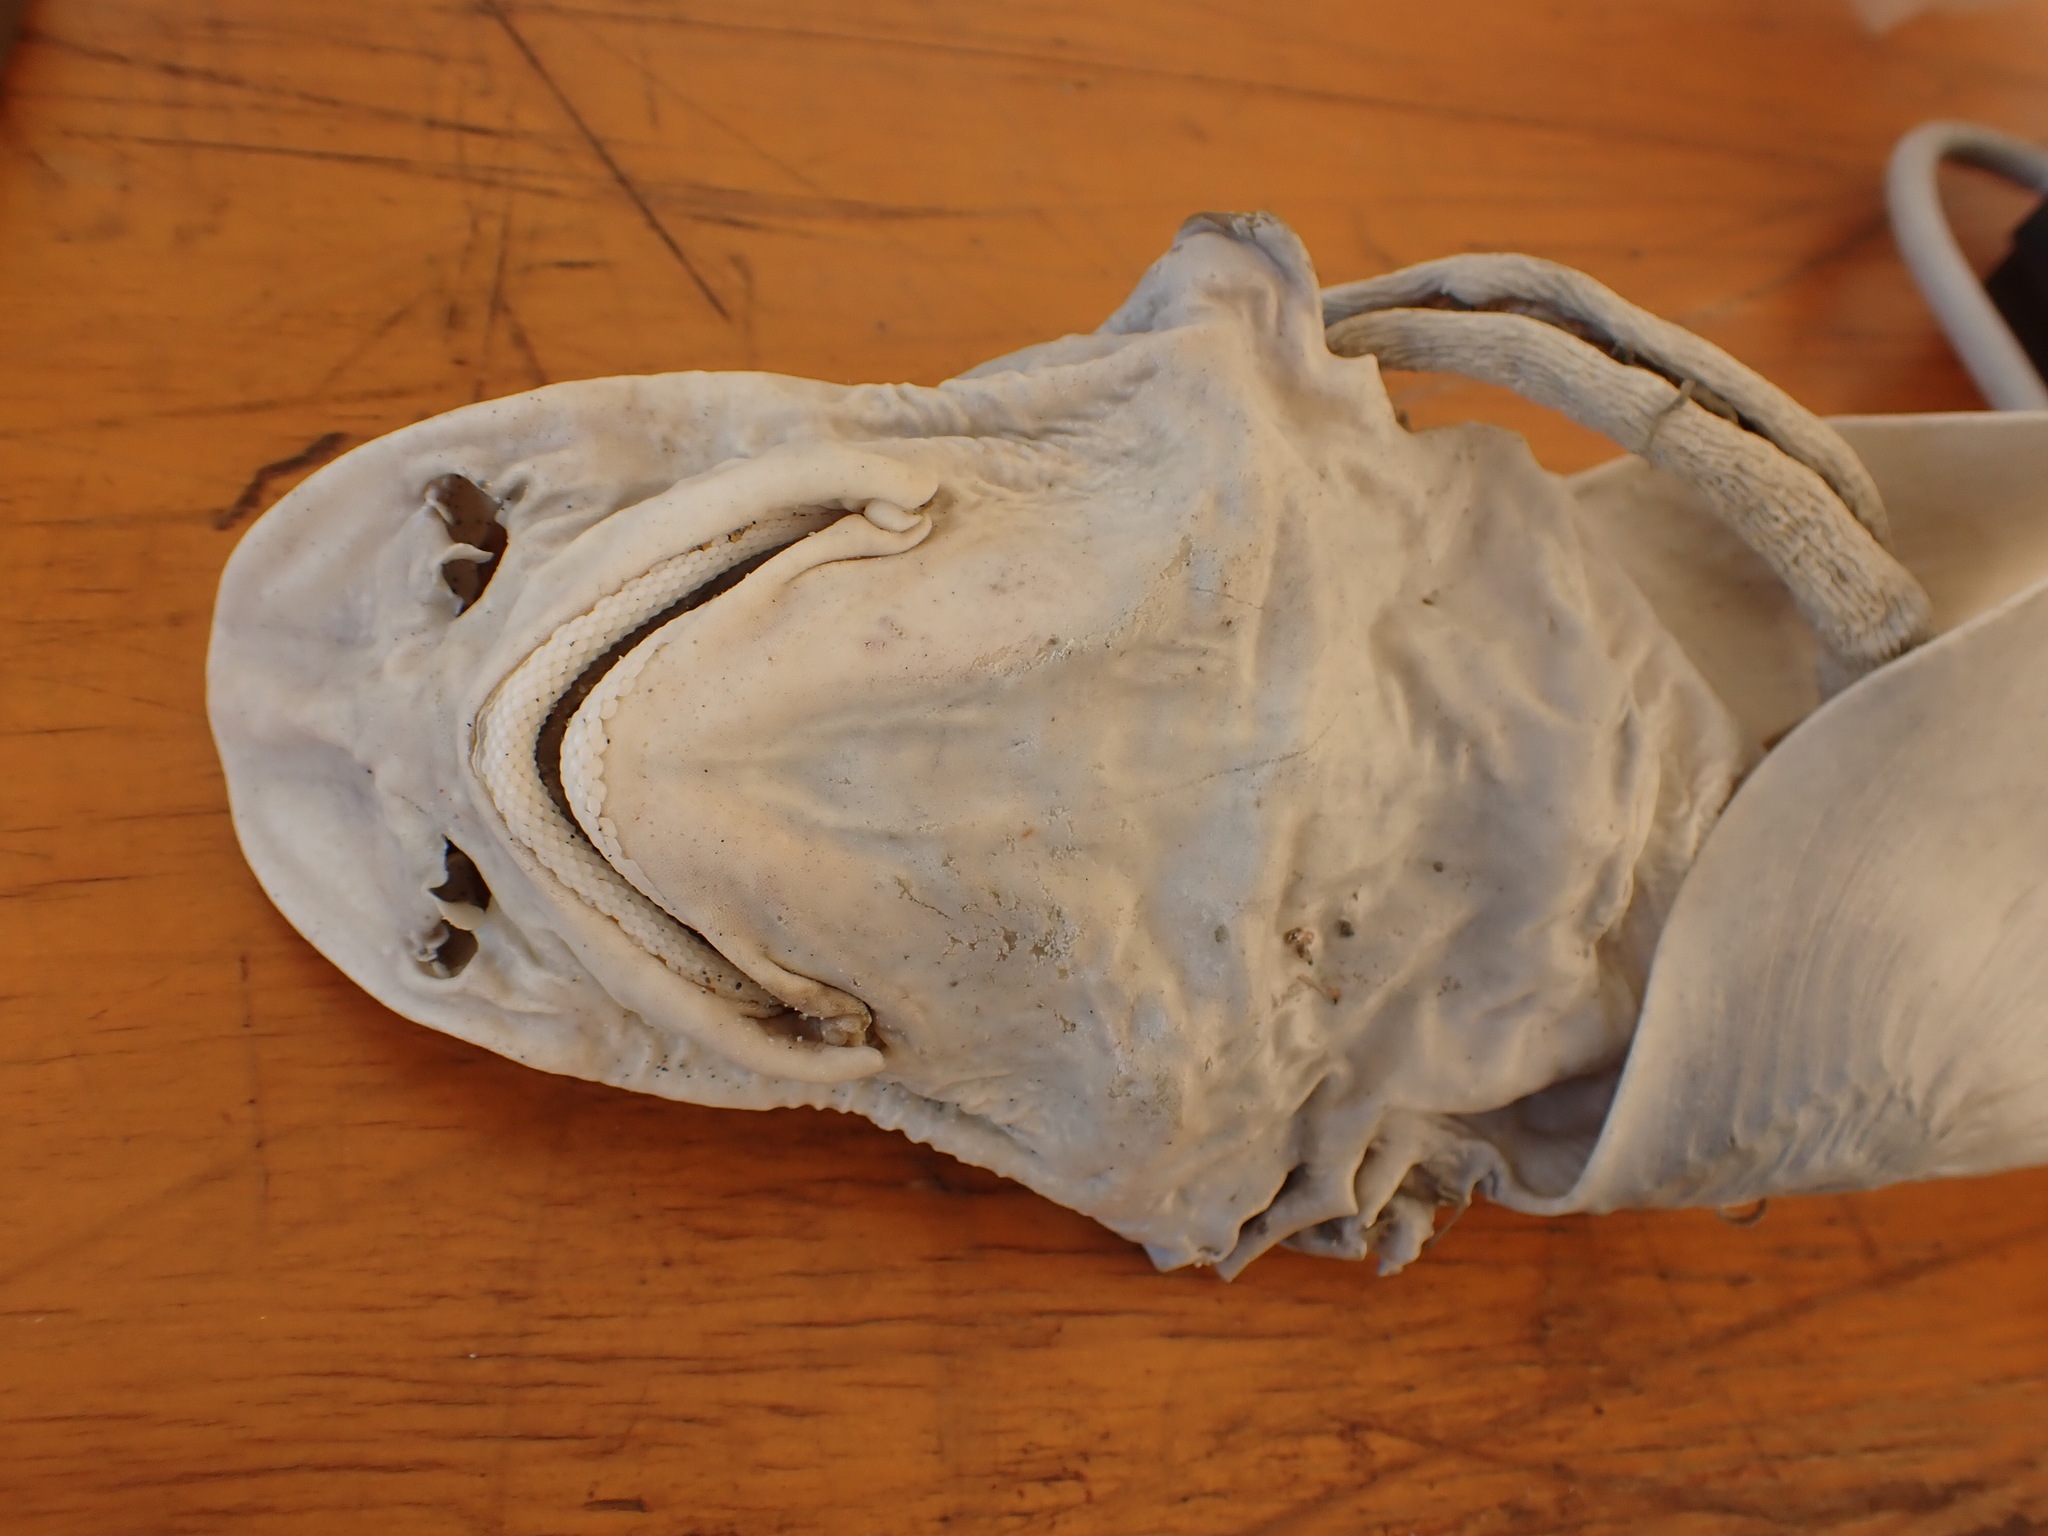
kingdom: Animalia
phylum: Chordata
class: Elasmobranchii
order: Carcharhiniformes
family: Triakidae
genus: Mustelus
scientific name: Mustelus lenticulatus
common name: Gummy shark
